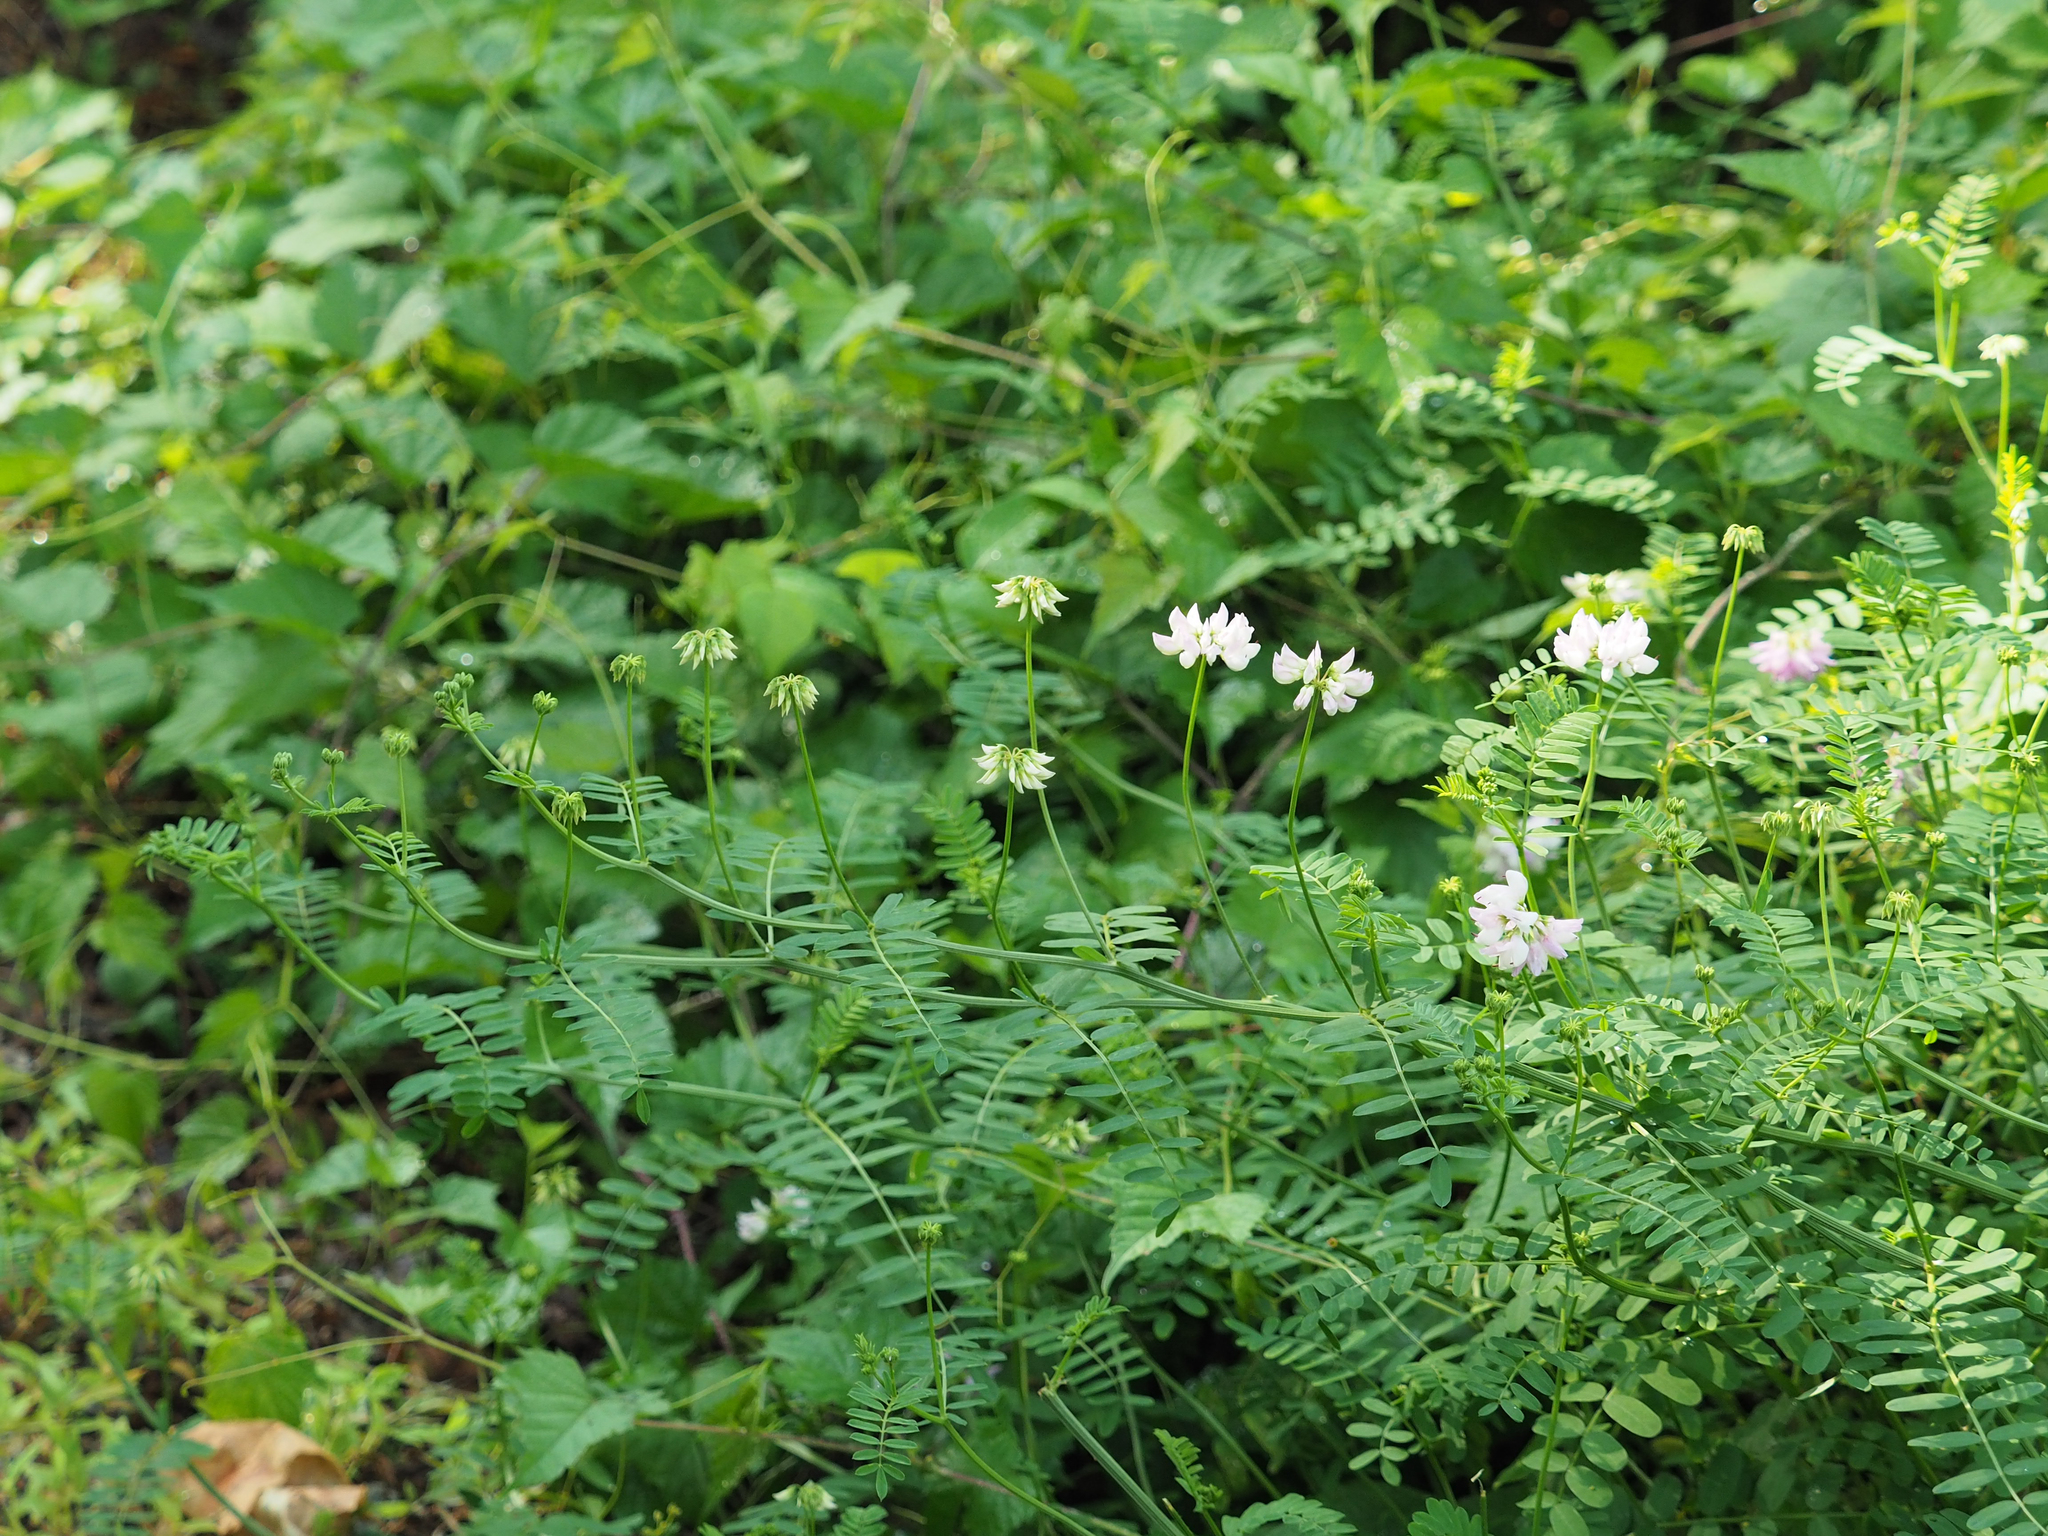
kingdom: Plantae
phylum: Tracheophyta
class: Magnoliopsida
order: Fabales
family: Fabaceae
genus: Coronilla
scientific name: Coronilla varia
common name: Crownvetch
